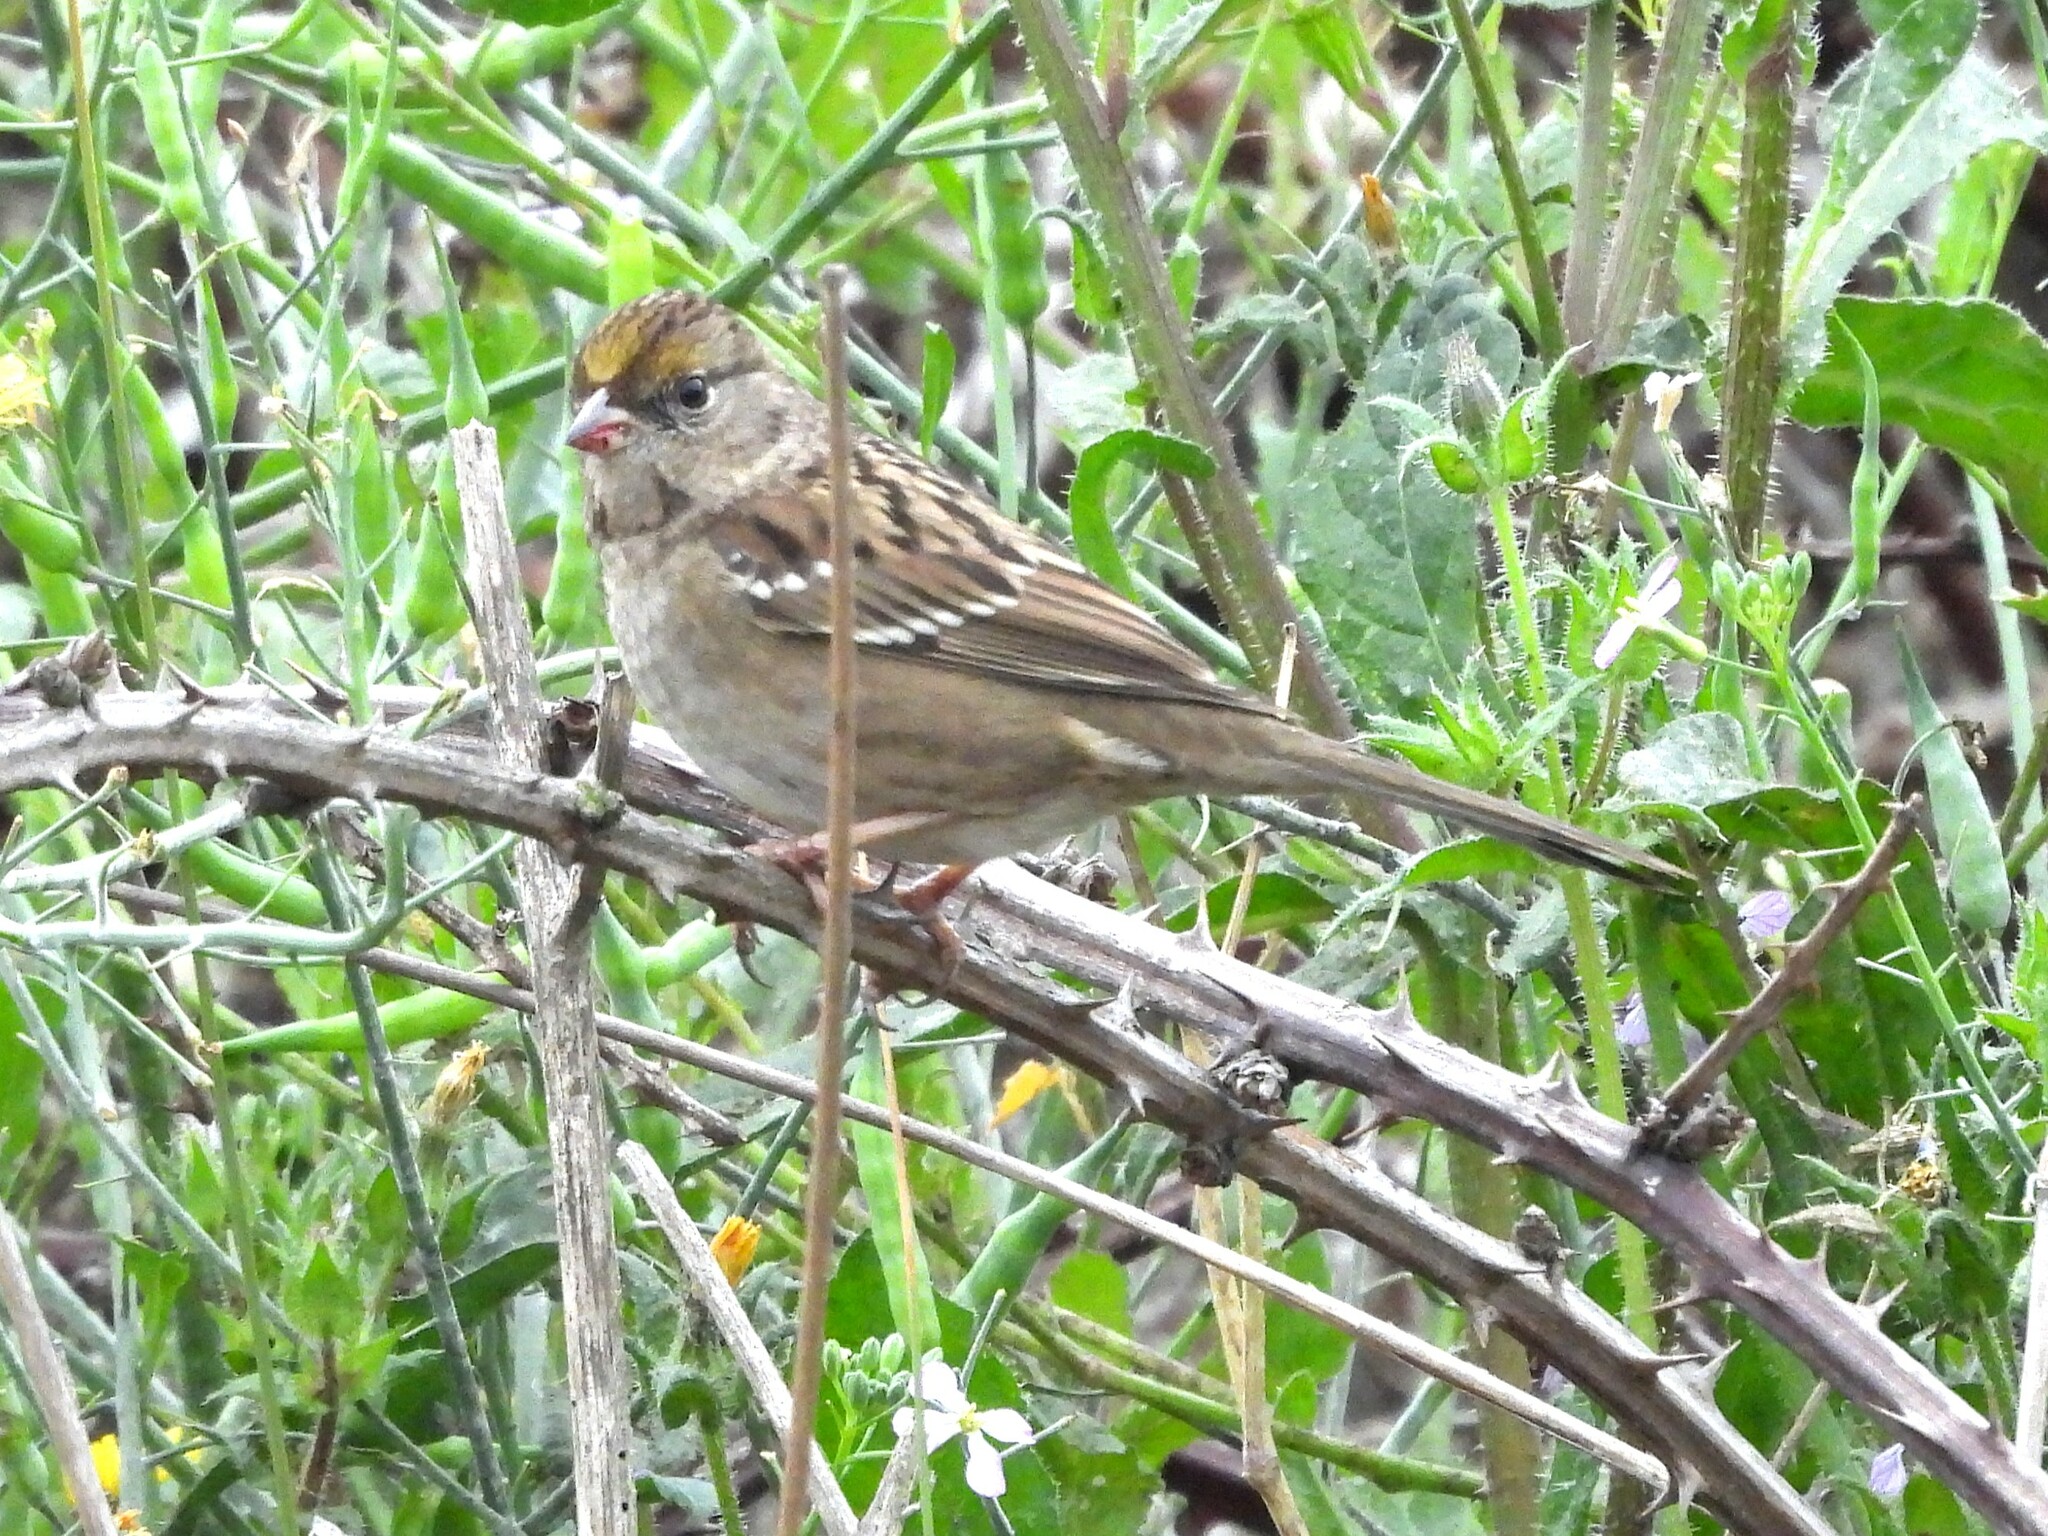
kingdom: Animalia
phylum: Chordata
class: Aves
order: Passeriformes
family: Passerellidae
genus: Zonotrichia
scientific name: Zonotrichia atricapilla
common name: Golden-crowned sparrow
